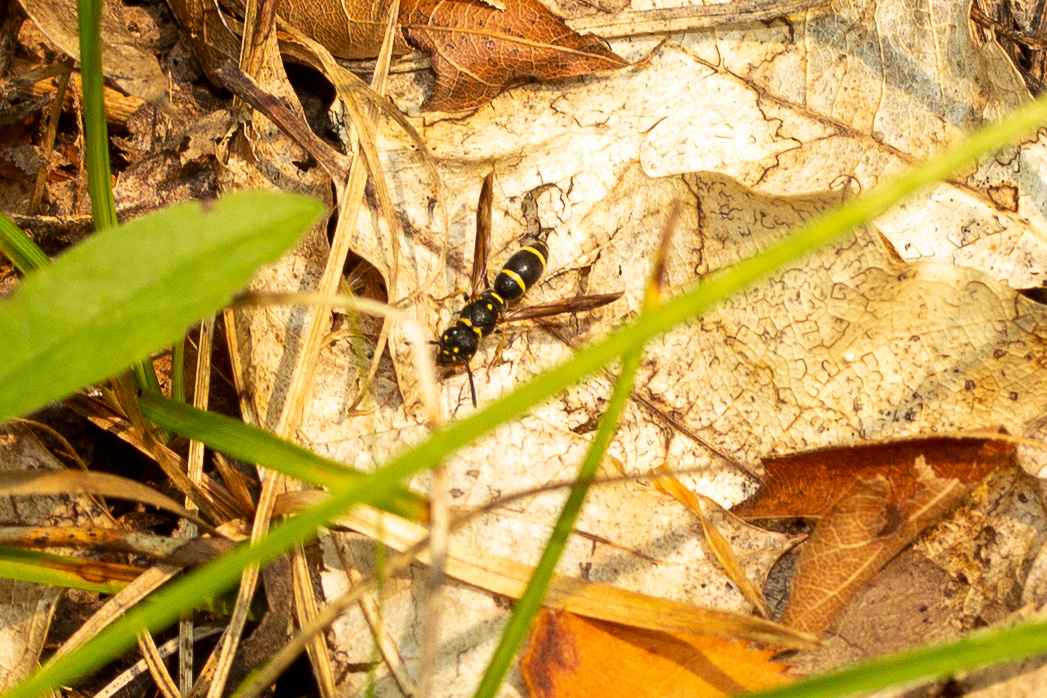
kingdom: Animalia
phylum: Arthropoda
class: Insecta
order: Hymenoptera
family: Eumenidae
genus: Parancistrocerus
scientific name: Parancistrocerus pedestris
